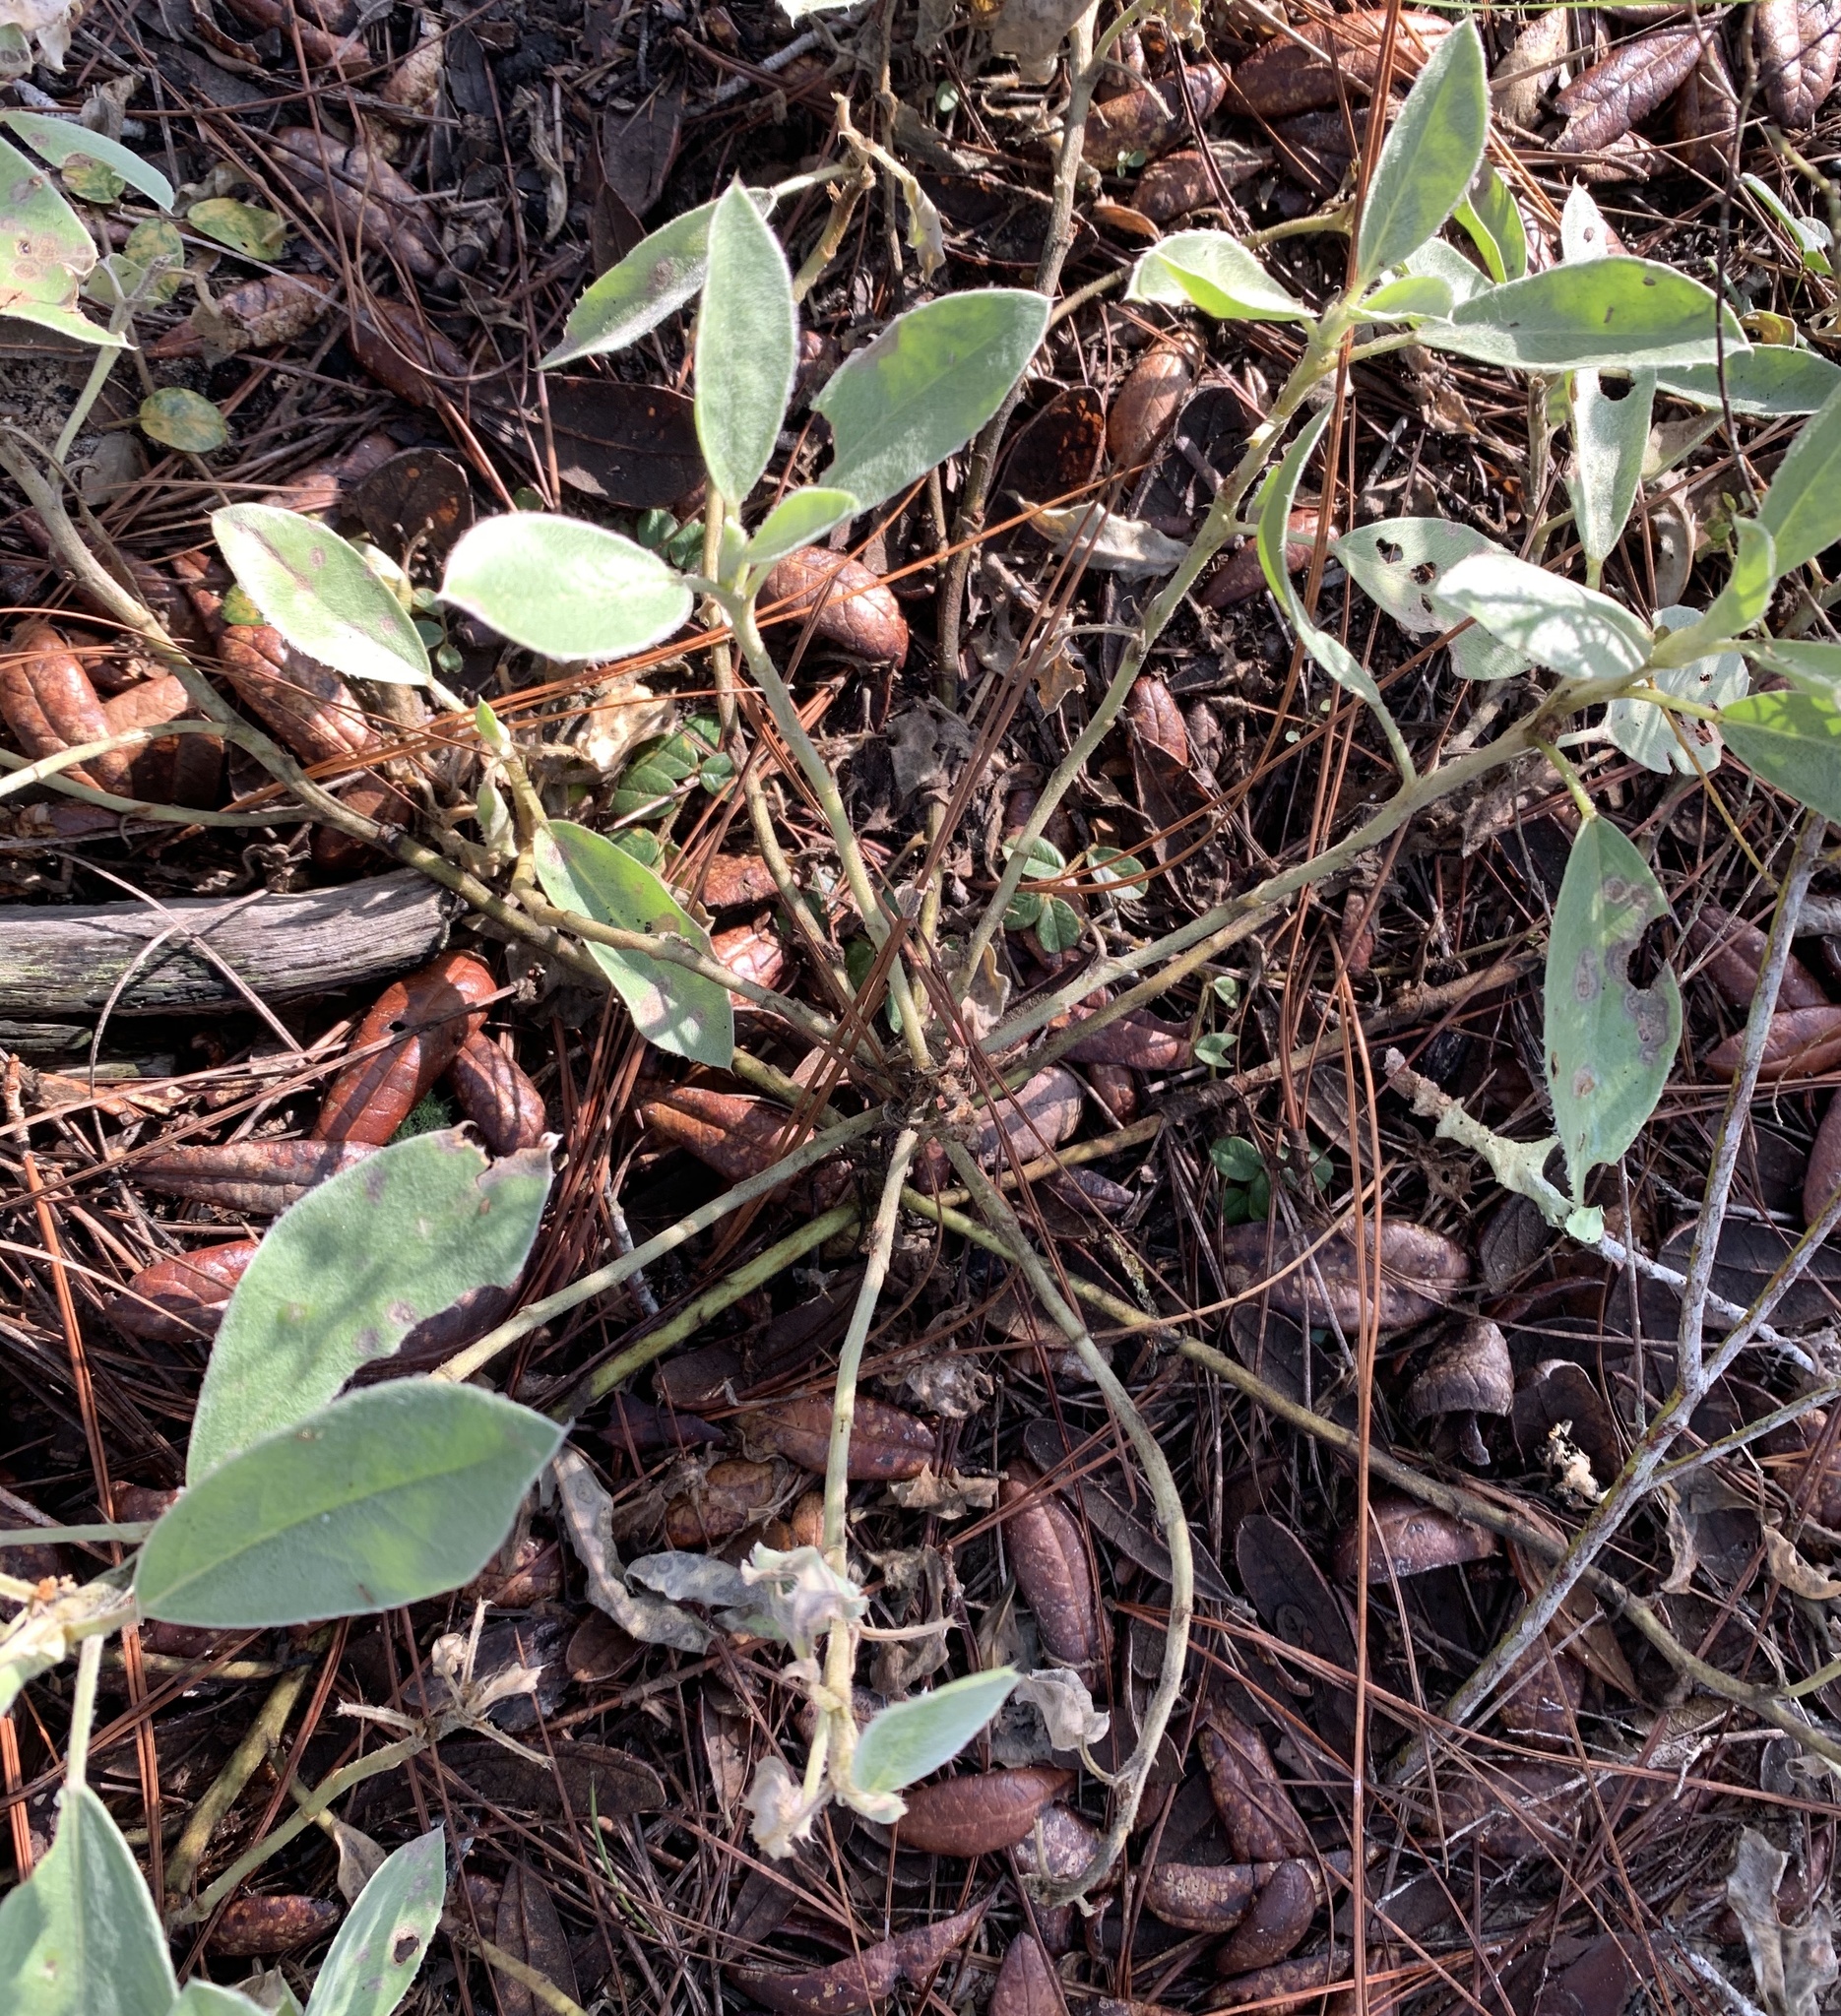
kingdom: Plantae
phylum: Tracheophyta
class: Magnoliopsida
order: Fabales
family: Fabaceae
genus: Lupinus
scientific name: Lupinus
